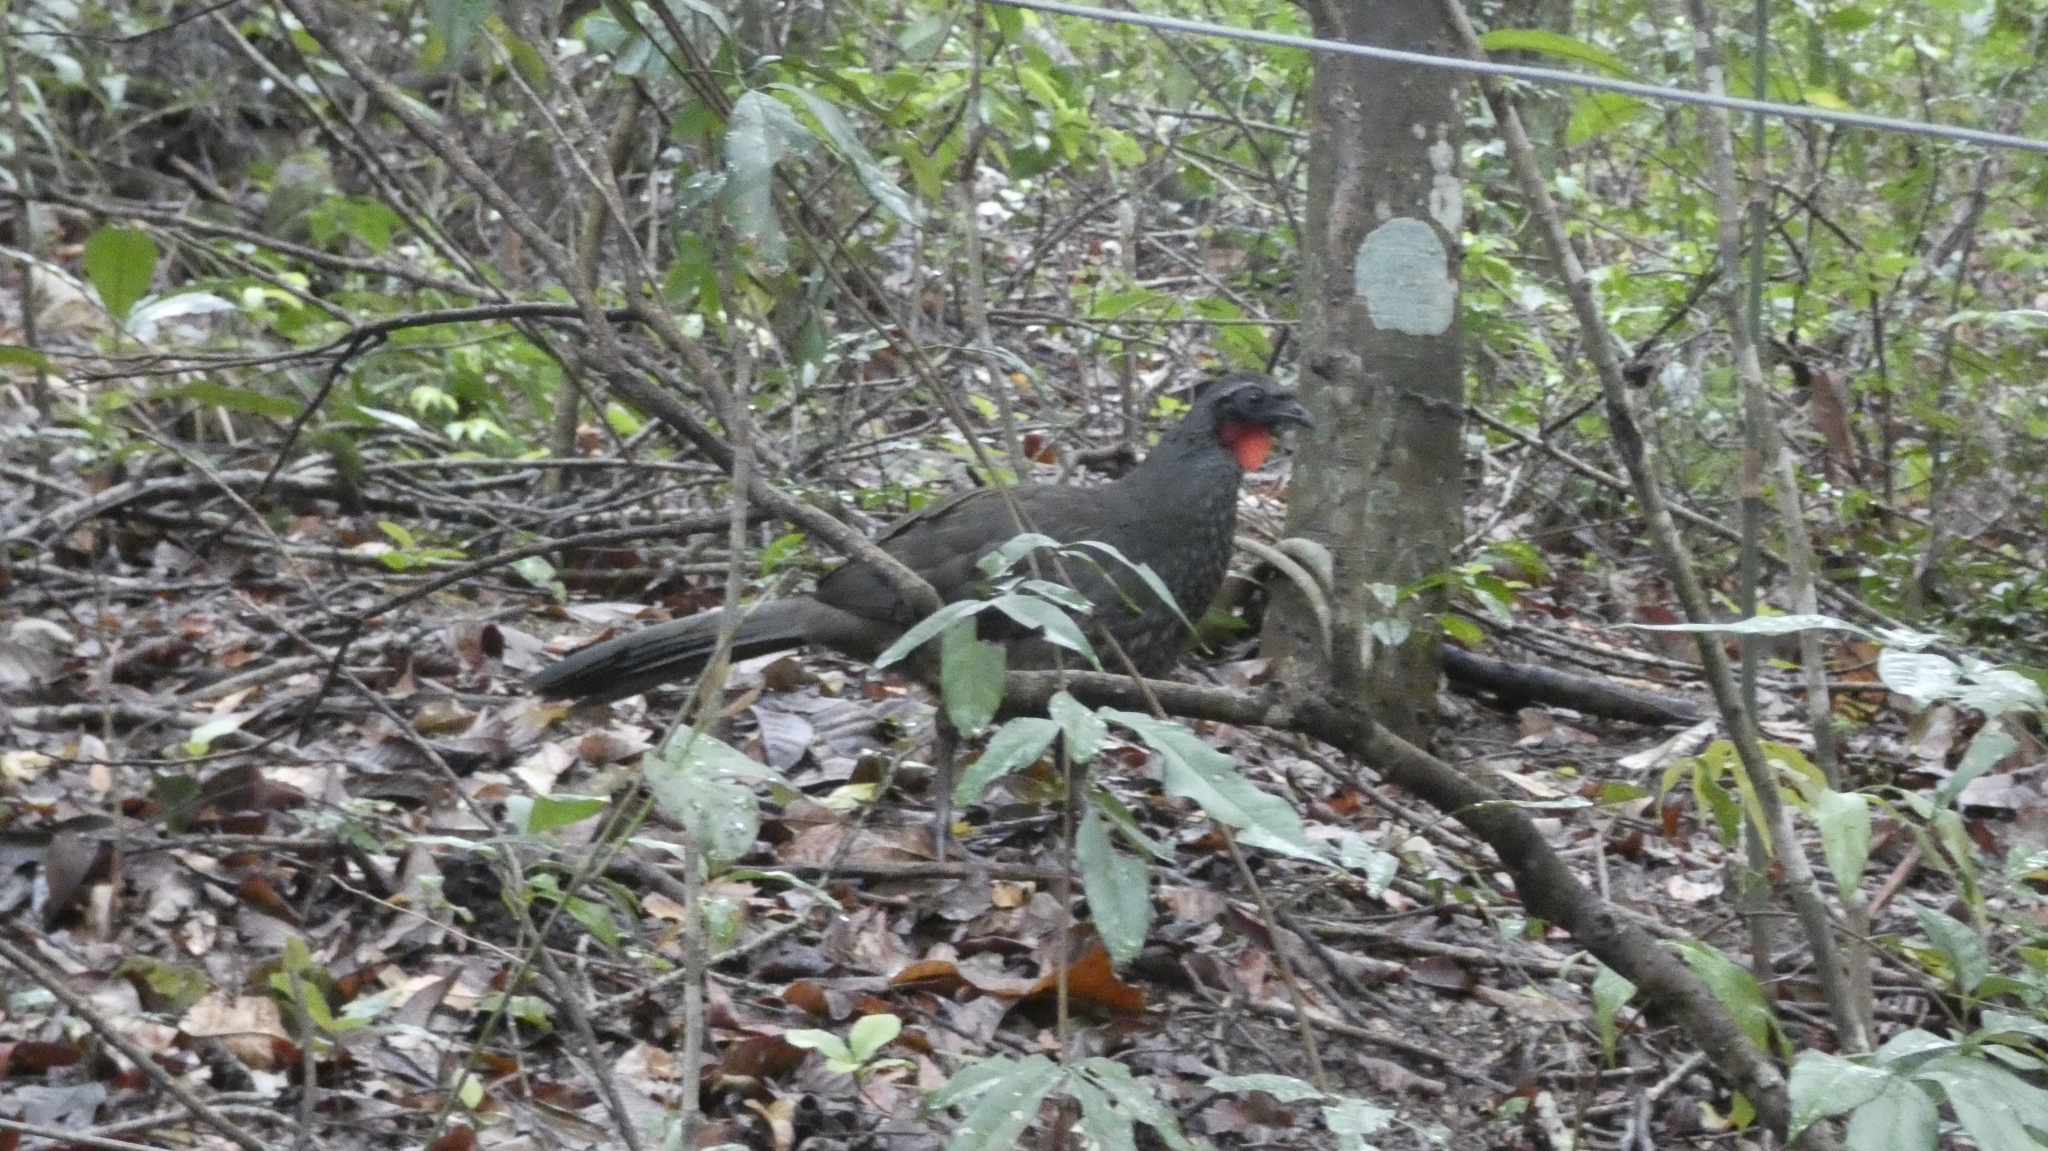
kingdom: Animalia
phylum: Chordata
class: Aves
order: Galliformes
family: Cracidae
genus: Penelope
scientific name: Penelope superciliaris
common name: Rusty-margined guan
